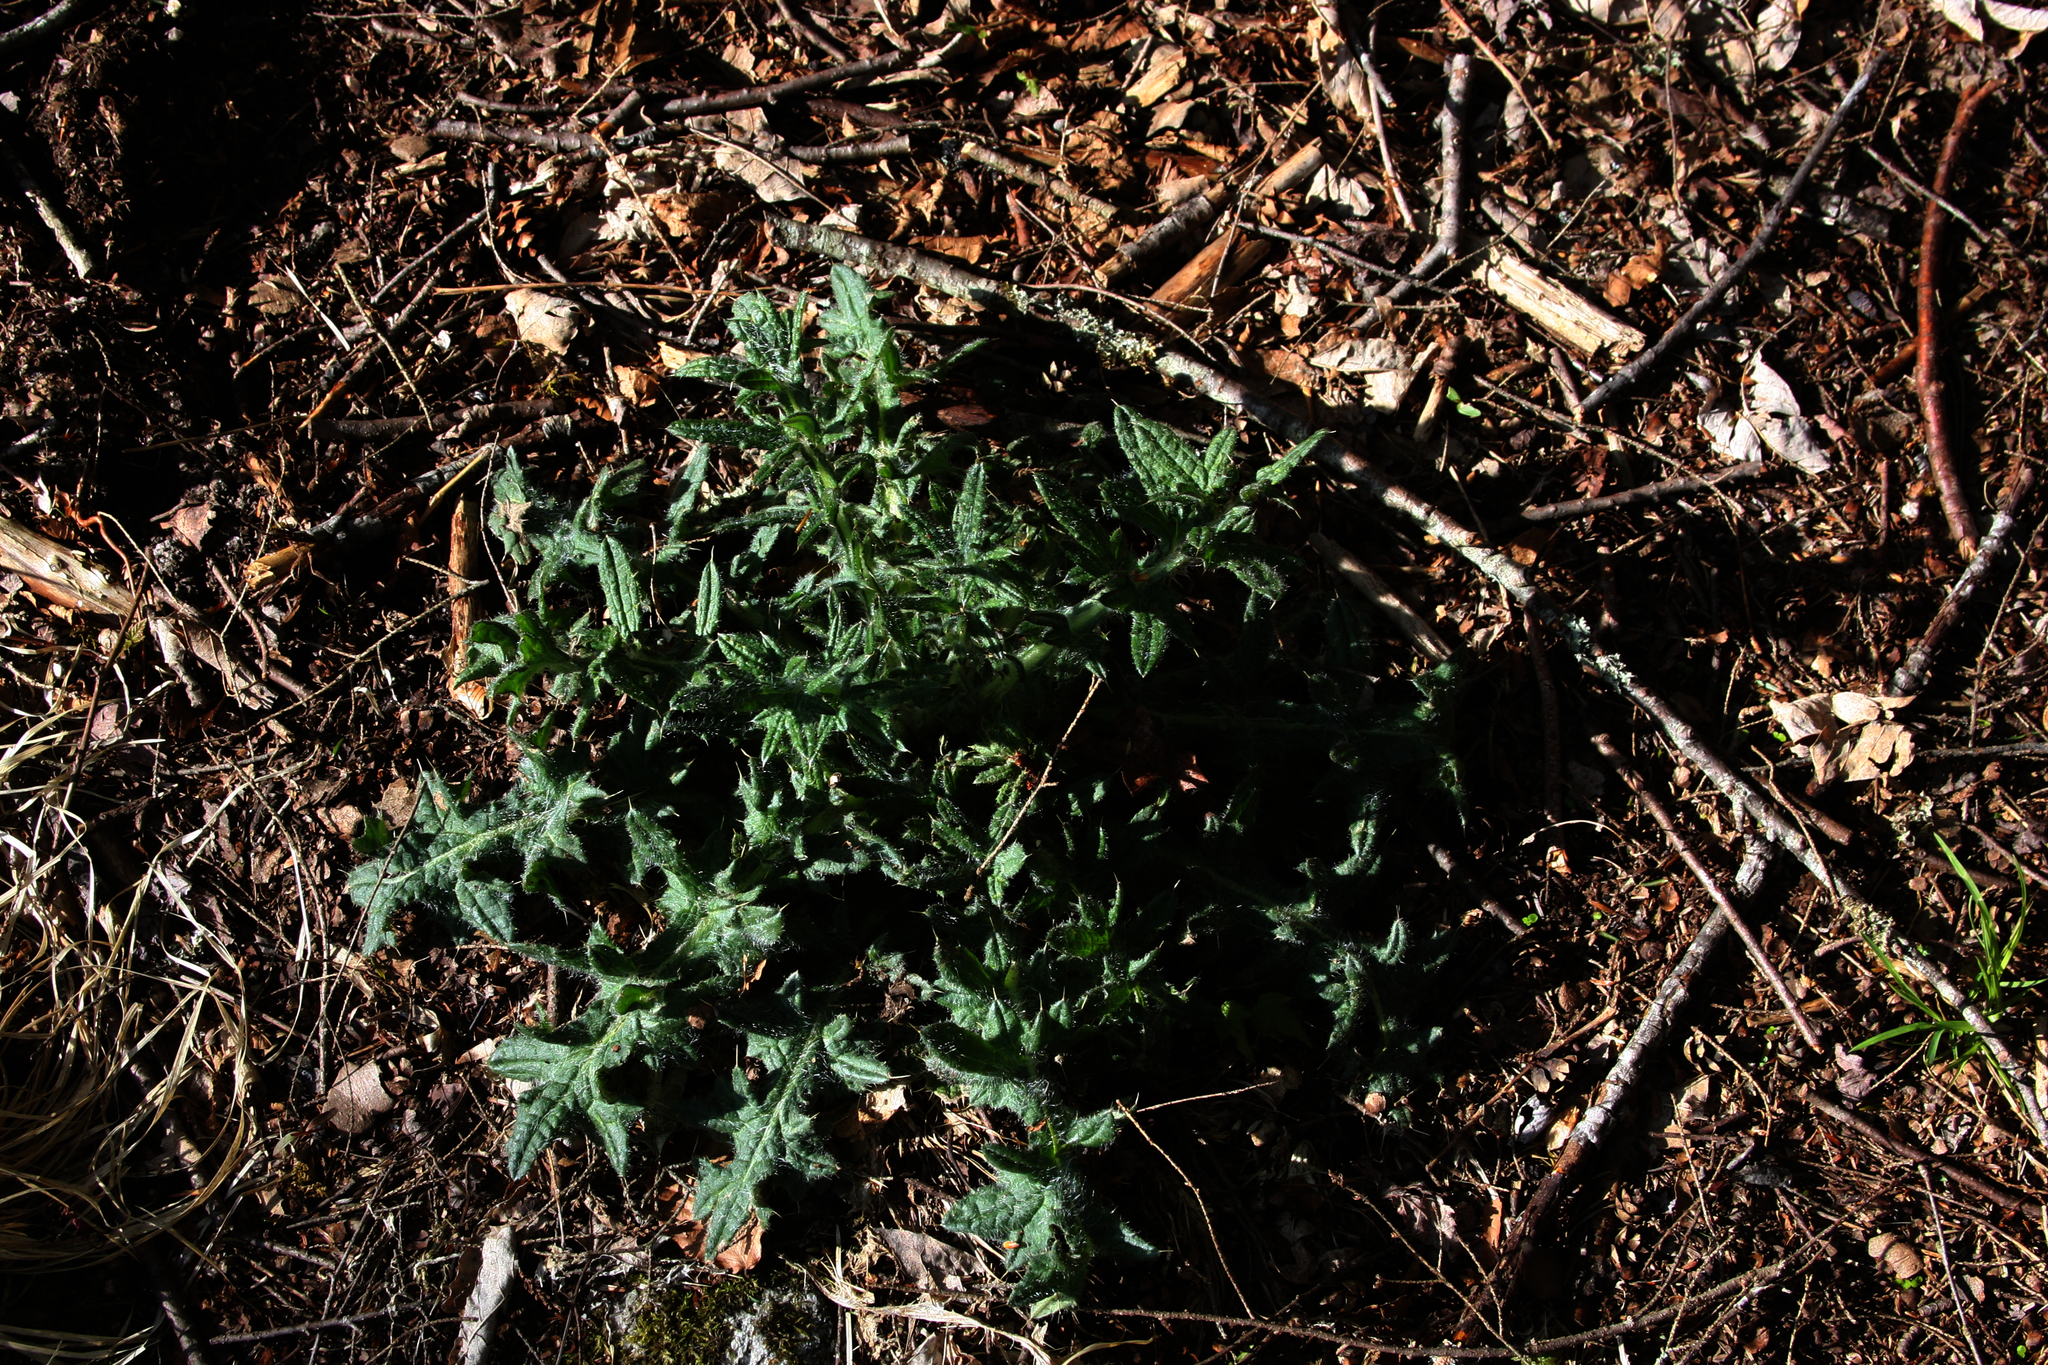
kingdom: Plantae
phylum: Tracheophyta
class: Magnoliopsida
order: Asterales
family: Asteraceae
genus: Cirsium
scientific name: Cirsium vulgare
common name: Bull thistle
